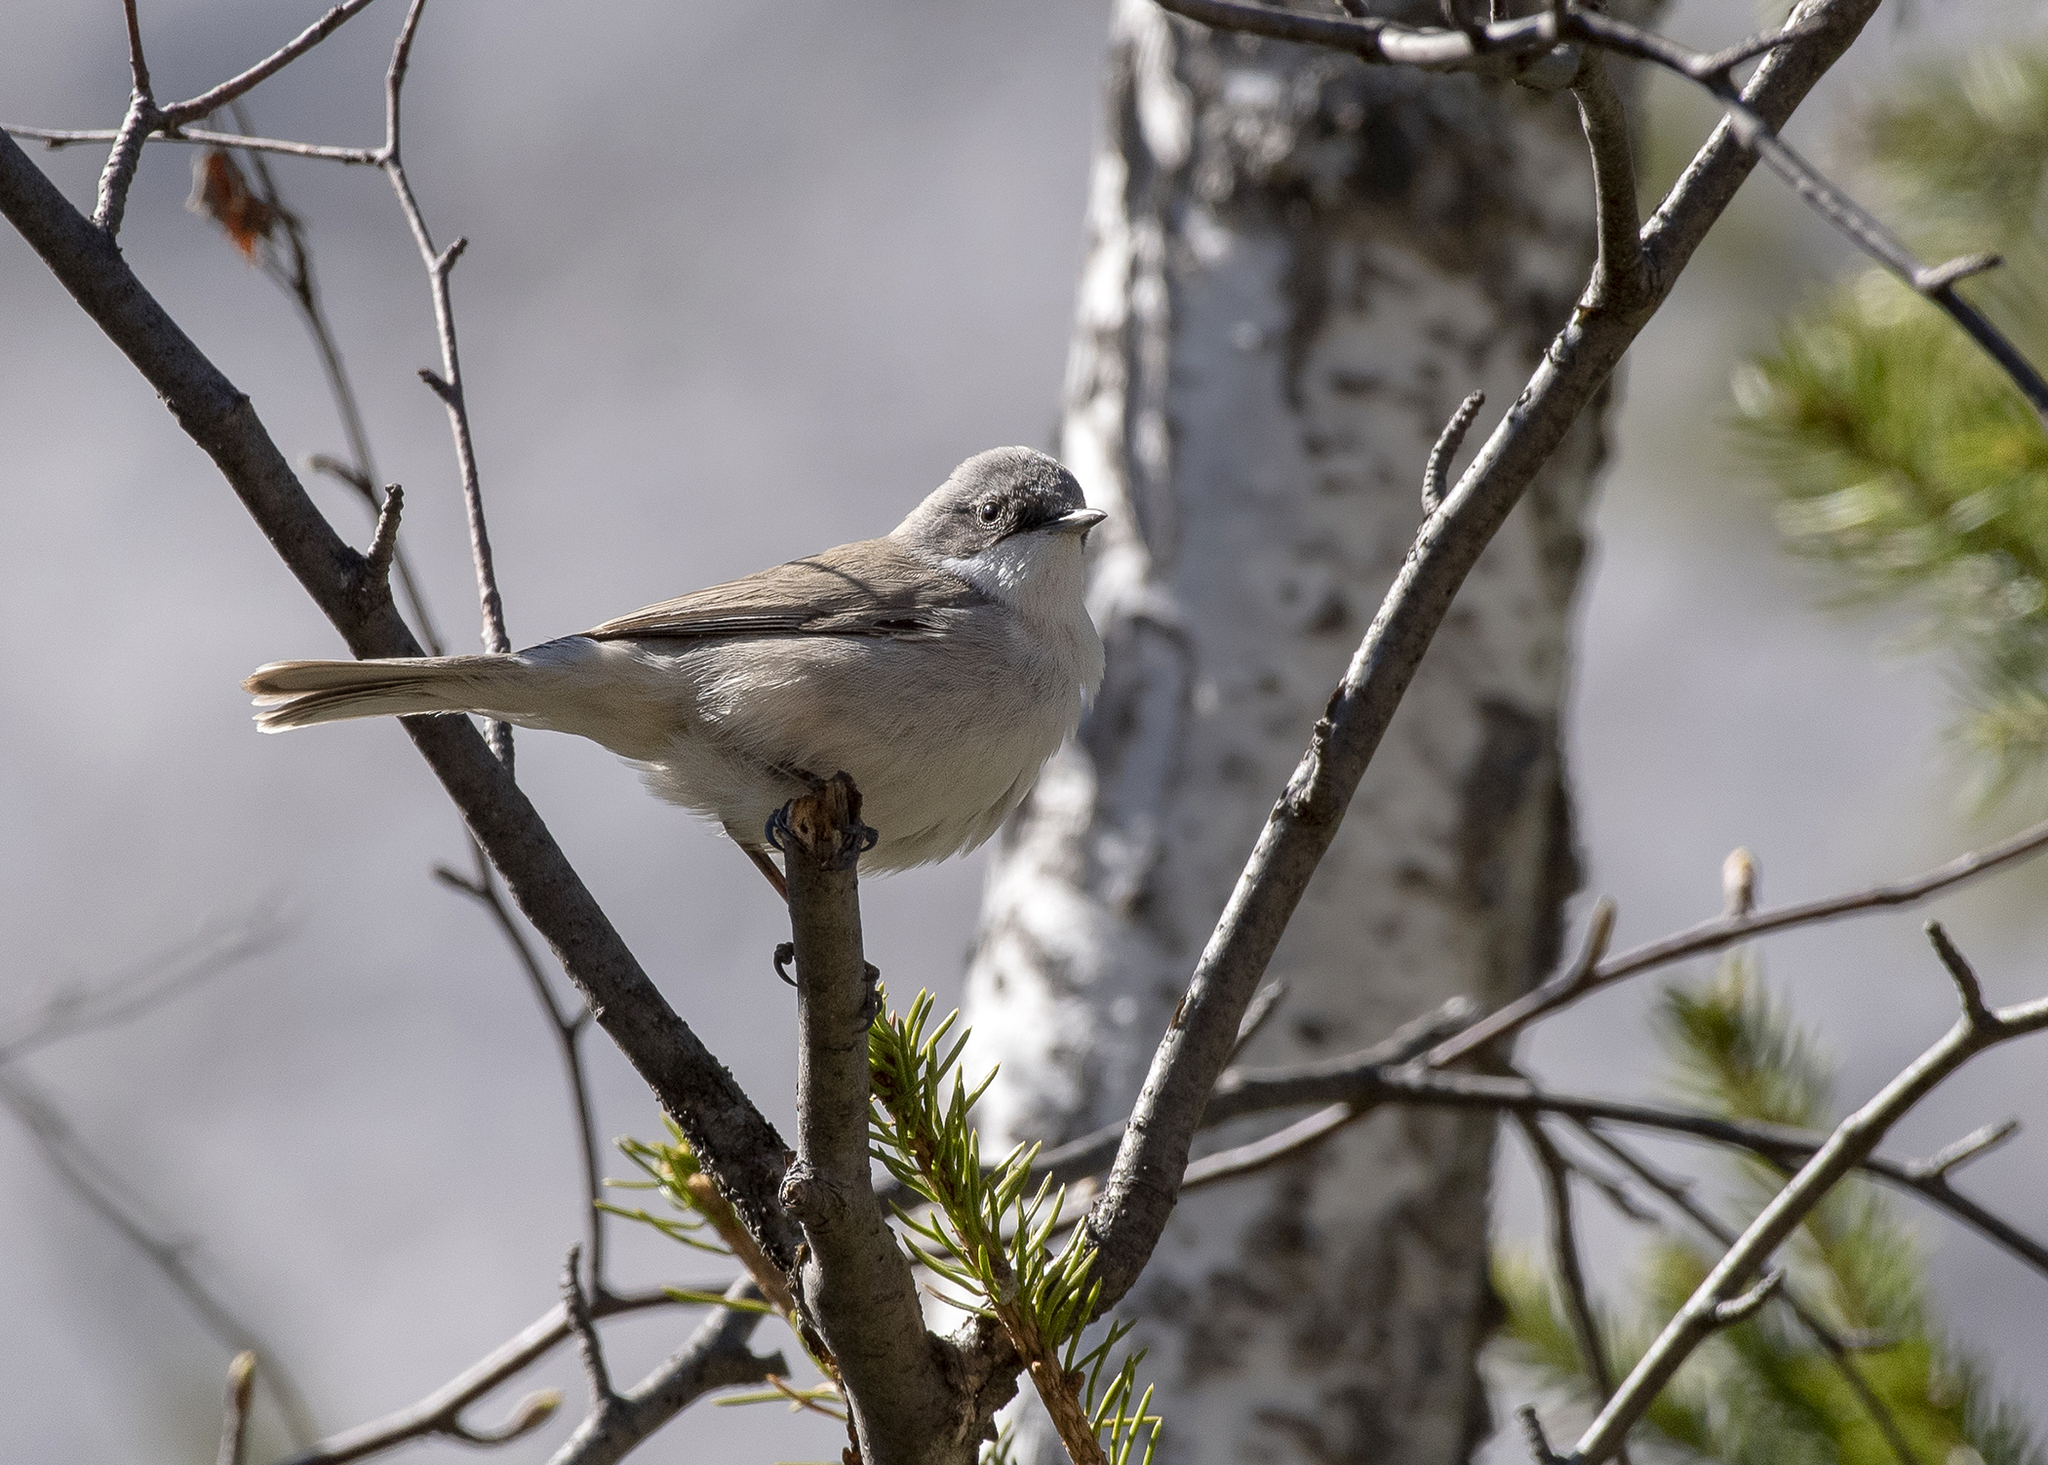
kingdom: Animalia
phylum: Chordata
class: Aves
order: Passeriformes
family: Sylviidae
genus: Sylvia
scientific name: Sylvia curruca
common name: Lesser whitethroat
